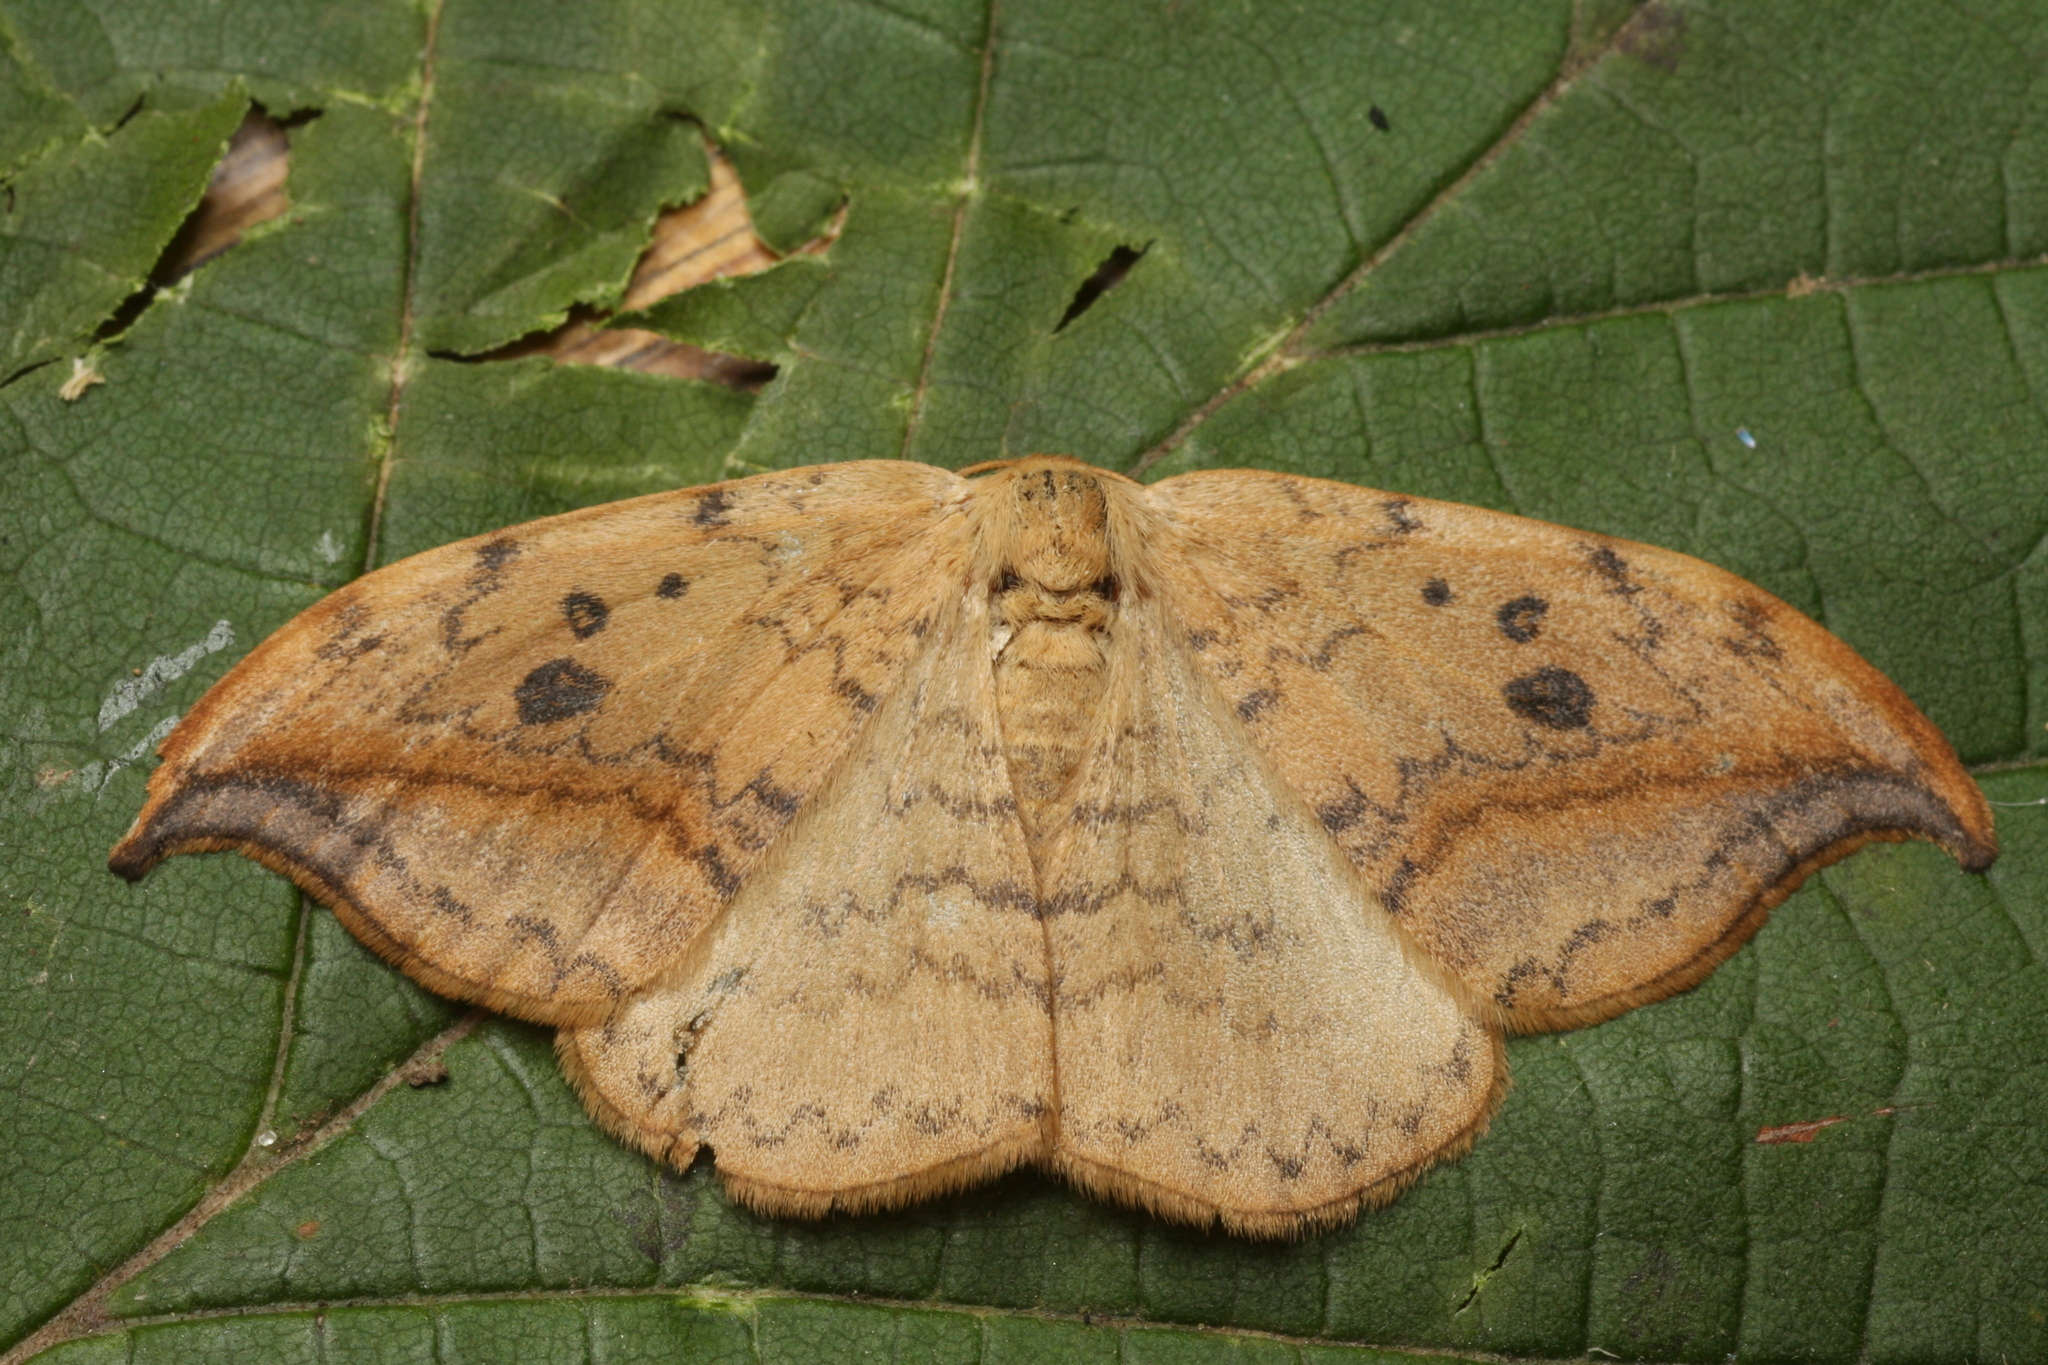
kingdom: Animalia
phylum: Arthropoda
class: Insecta
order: Lepidoptera
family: Drepanidae
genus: Drepana
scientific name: Drepana falcataria
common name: Pebble hook-tip
